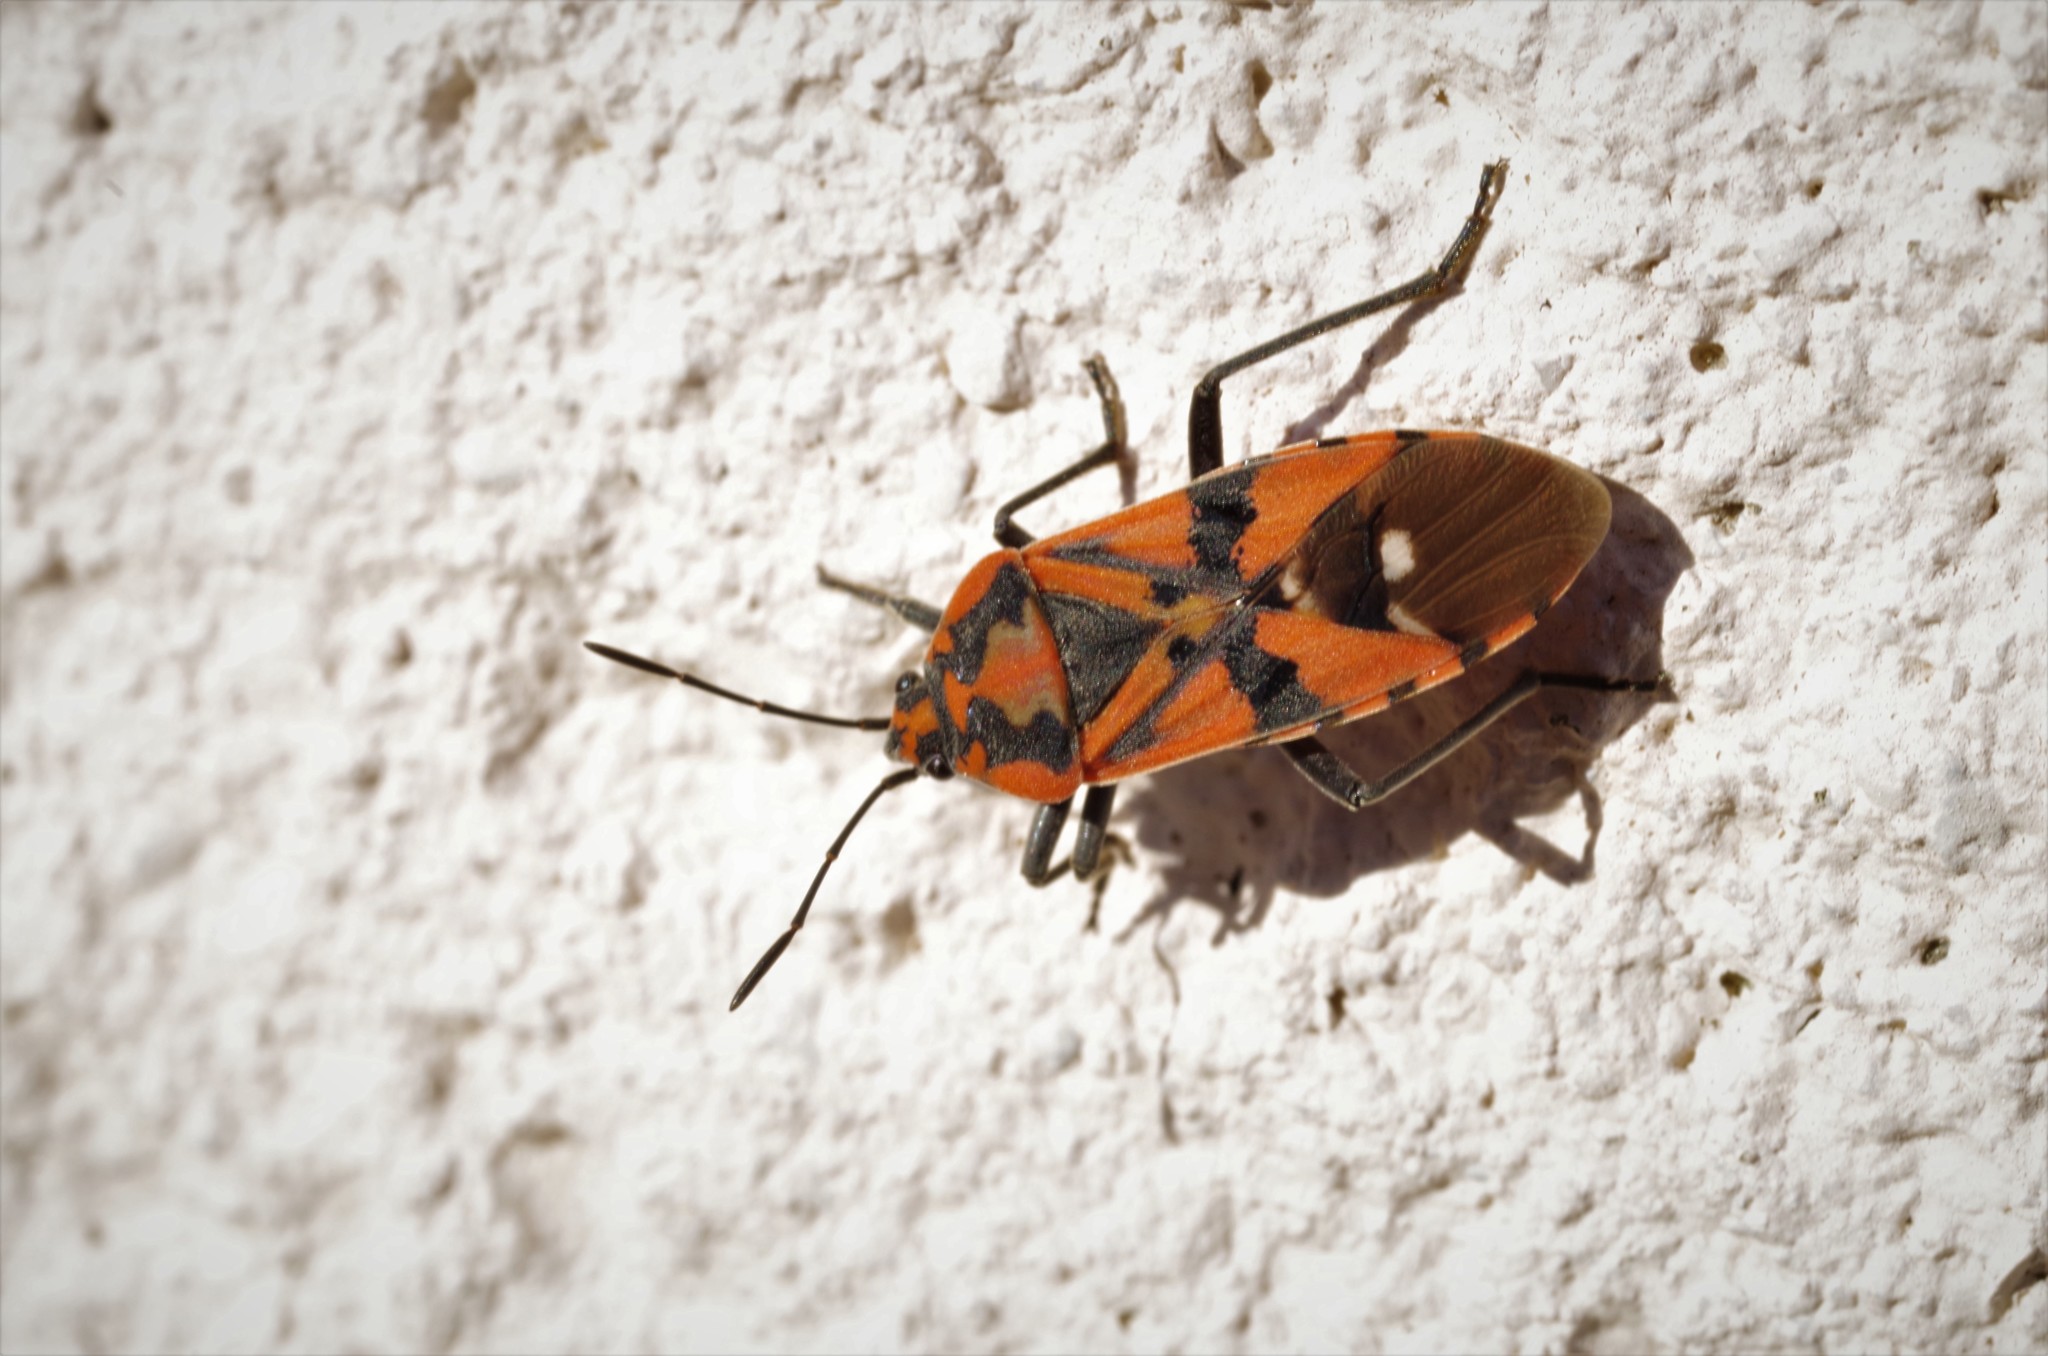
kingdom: Animalia
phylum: Arthropoda
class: Insecta
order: Hemiptera
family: Lygaeidae
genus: Spilostethus
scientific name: Spilostethus pandurus
